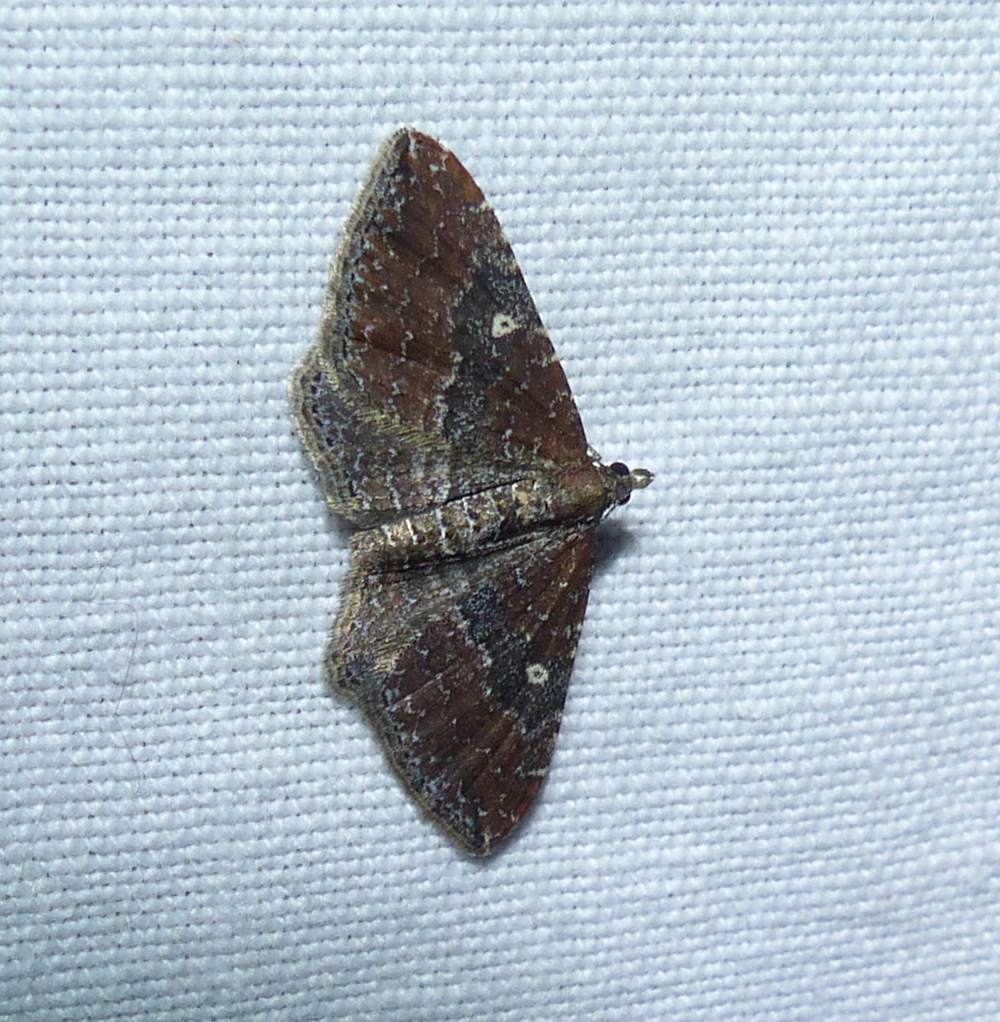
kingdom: Animalia
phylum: Arthropoda
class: Insecta
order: Lepidoptera
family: Geometridae
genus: Orthonama
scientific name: Orthonama obstipata
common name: The gem
